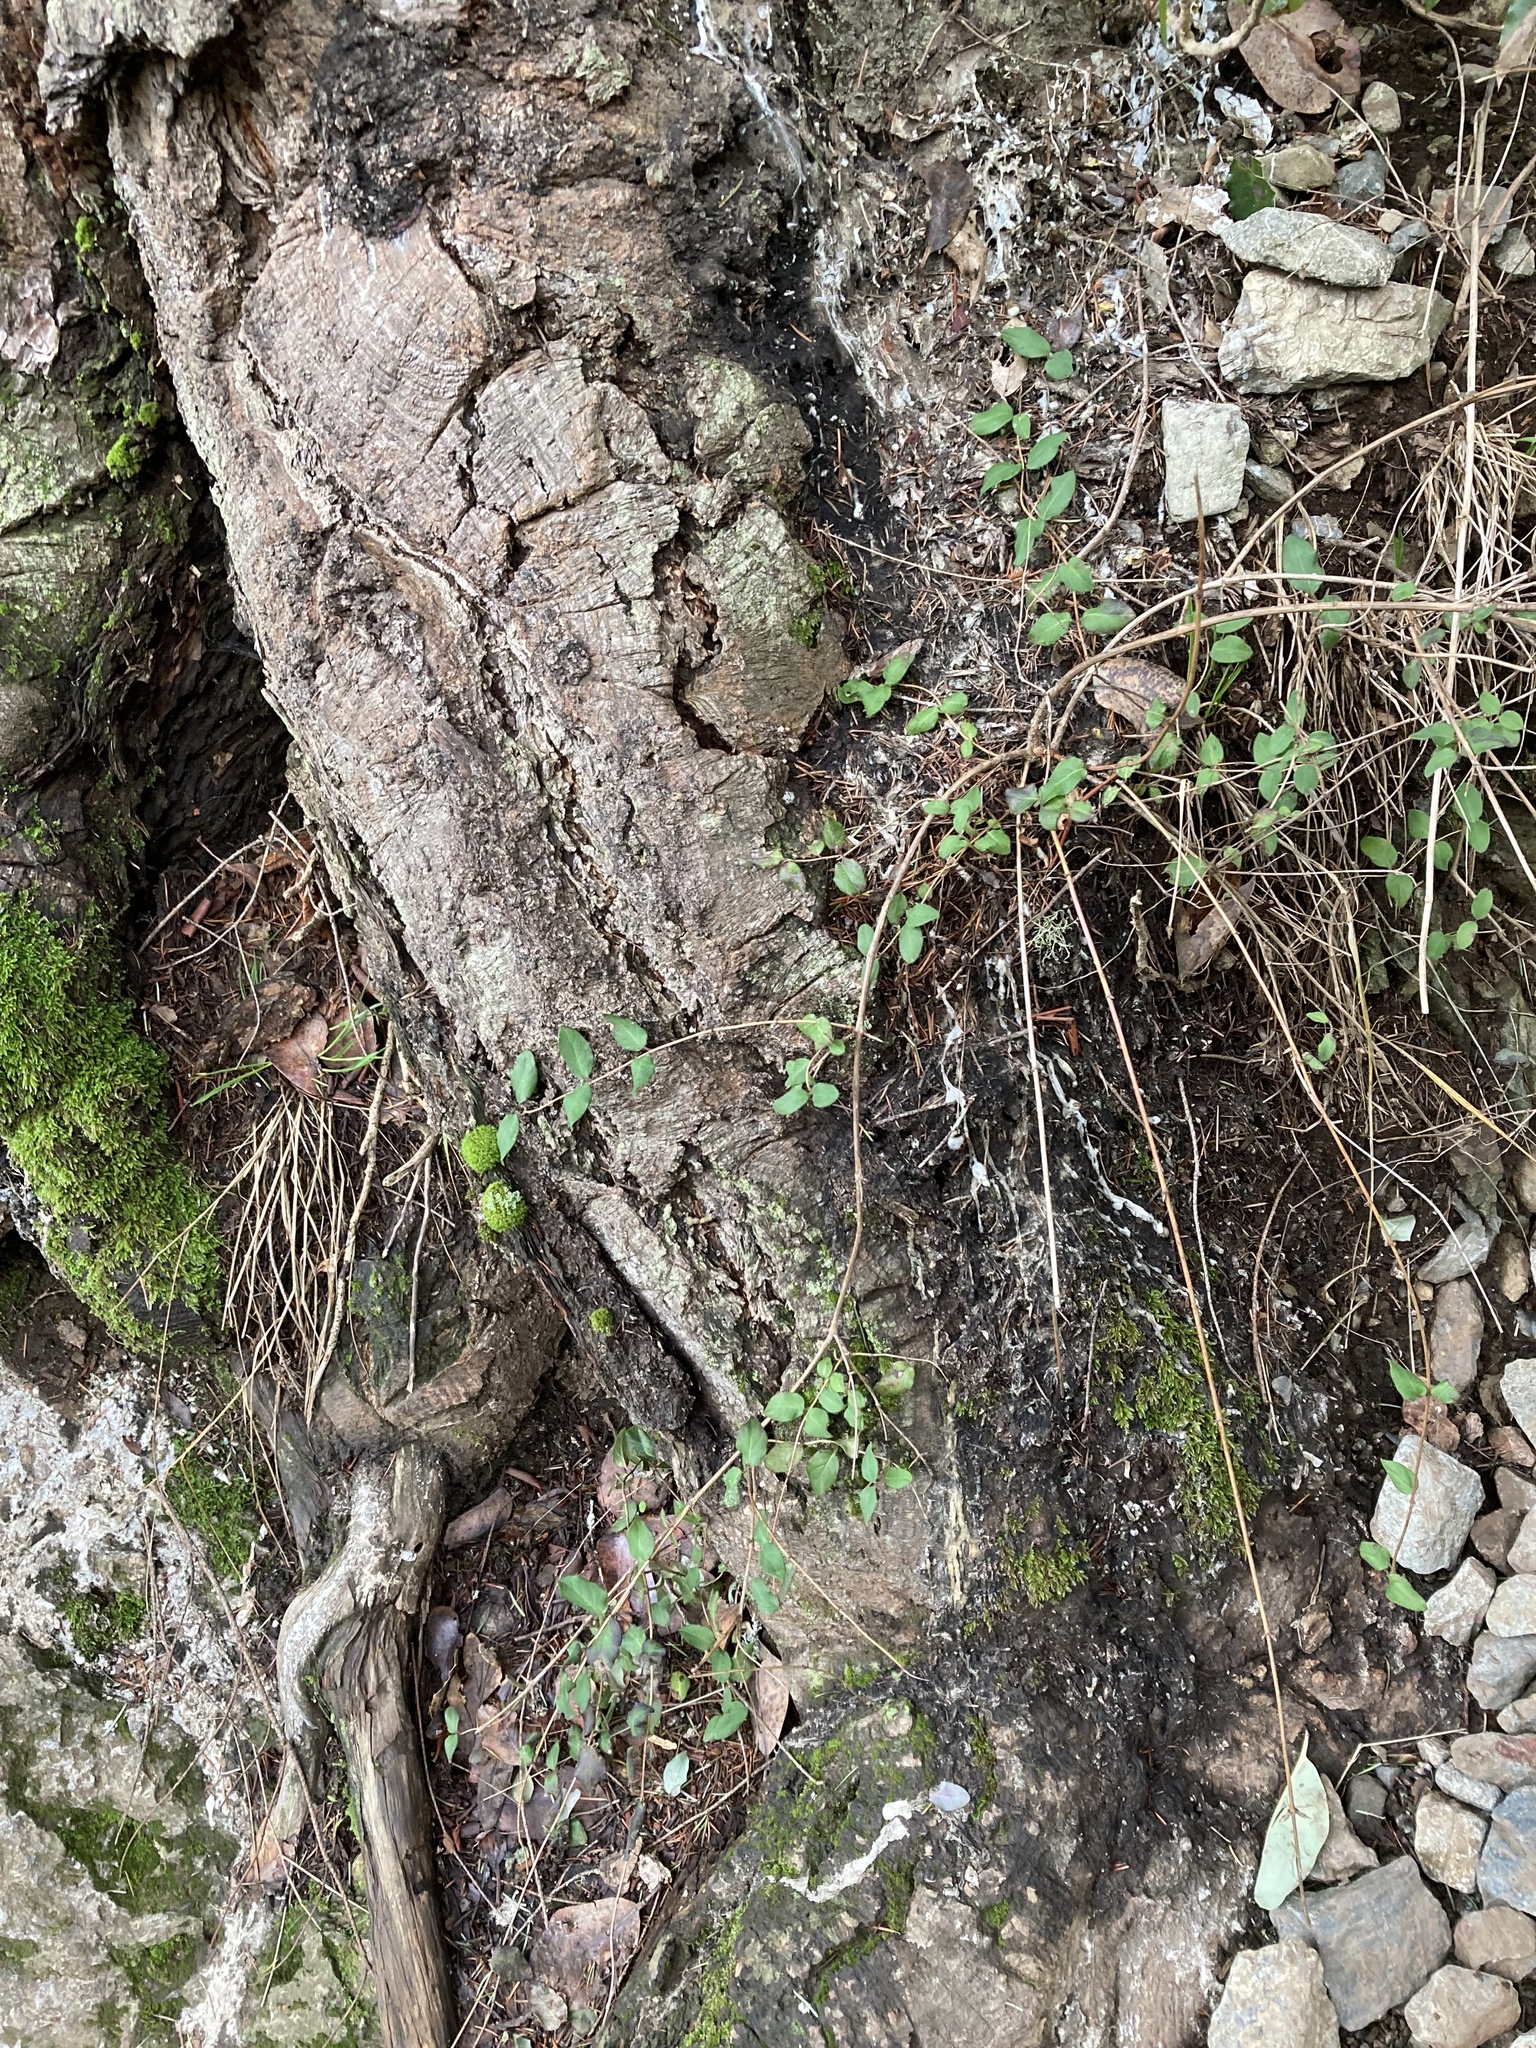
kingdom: Plantae
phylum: Tracheophyta
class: Magnoliopsida
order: Dipsacales
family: Caprifoliaceae
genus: Lonicera
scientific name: Lonicera hispidula
